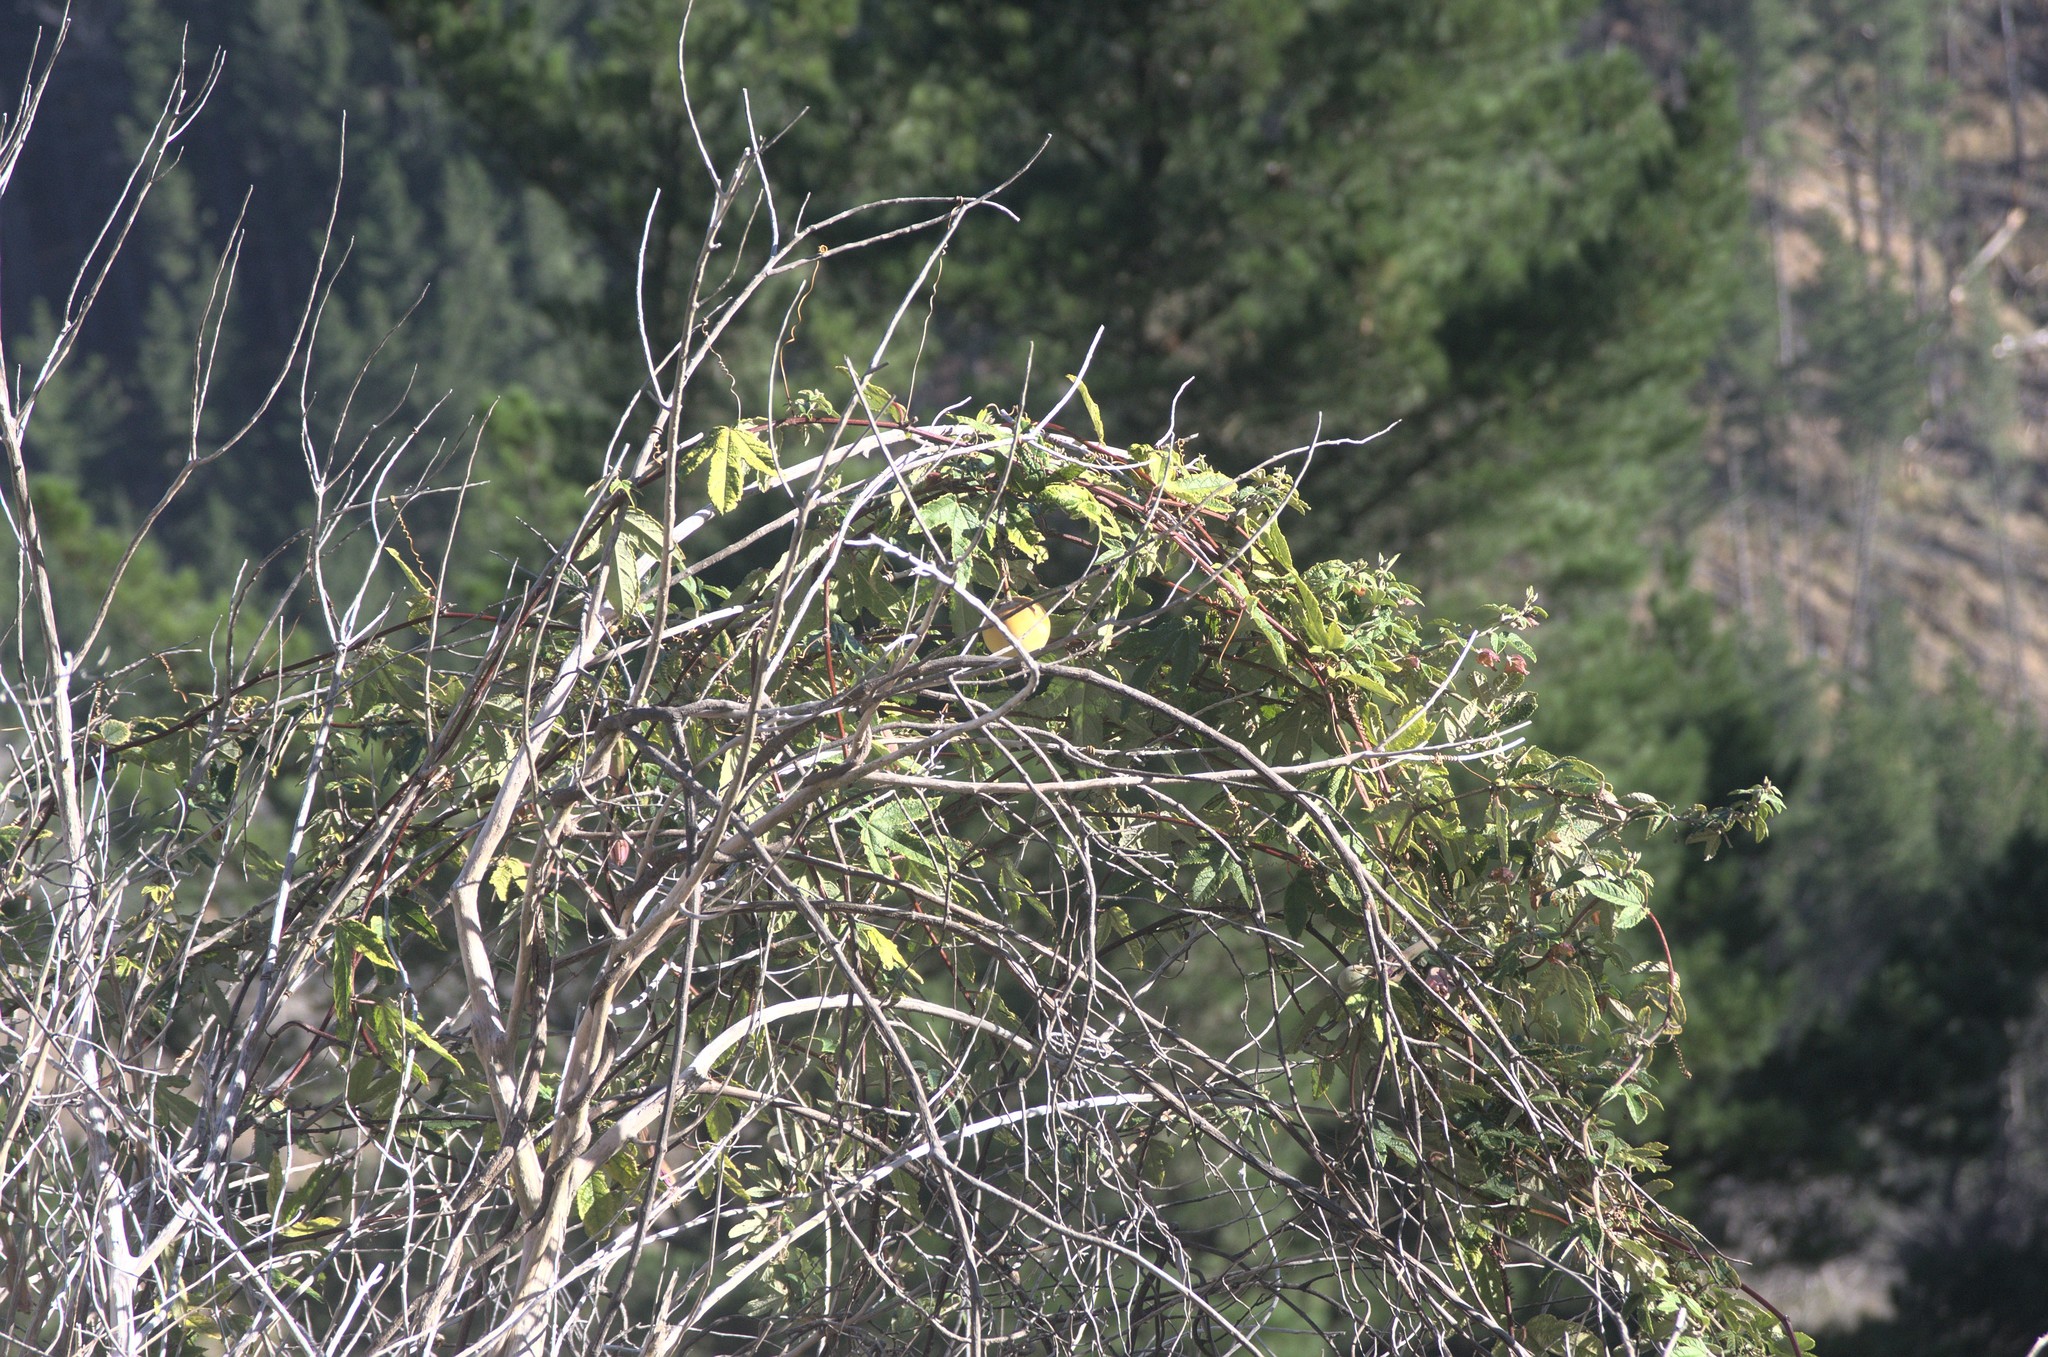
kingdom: Plantae
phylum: Tracheophyta
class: Magnoliopsida
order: Malpighiales
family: Passifloraceae
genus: Passiflora
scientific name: Passiflora pinnatistipula
